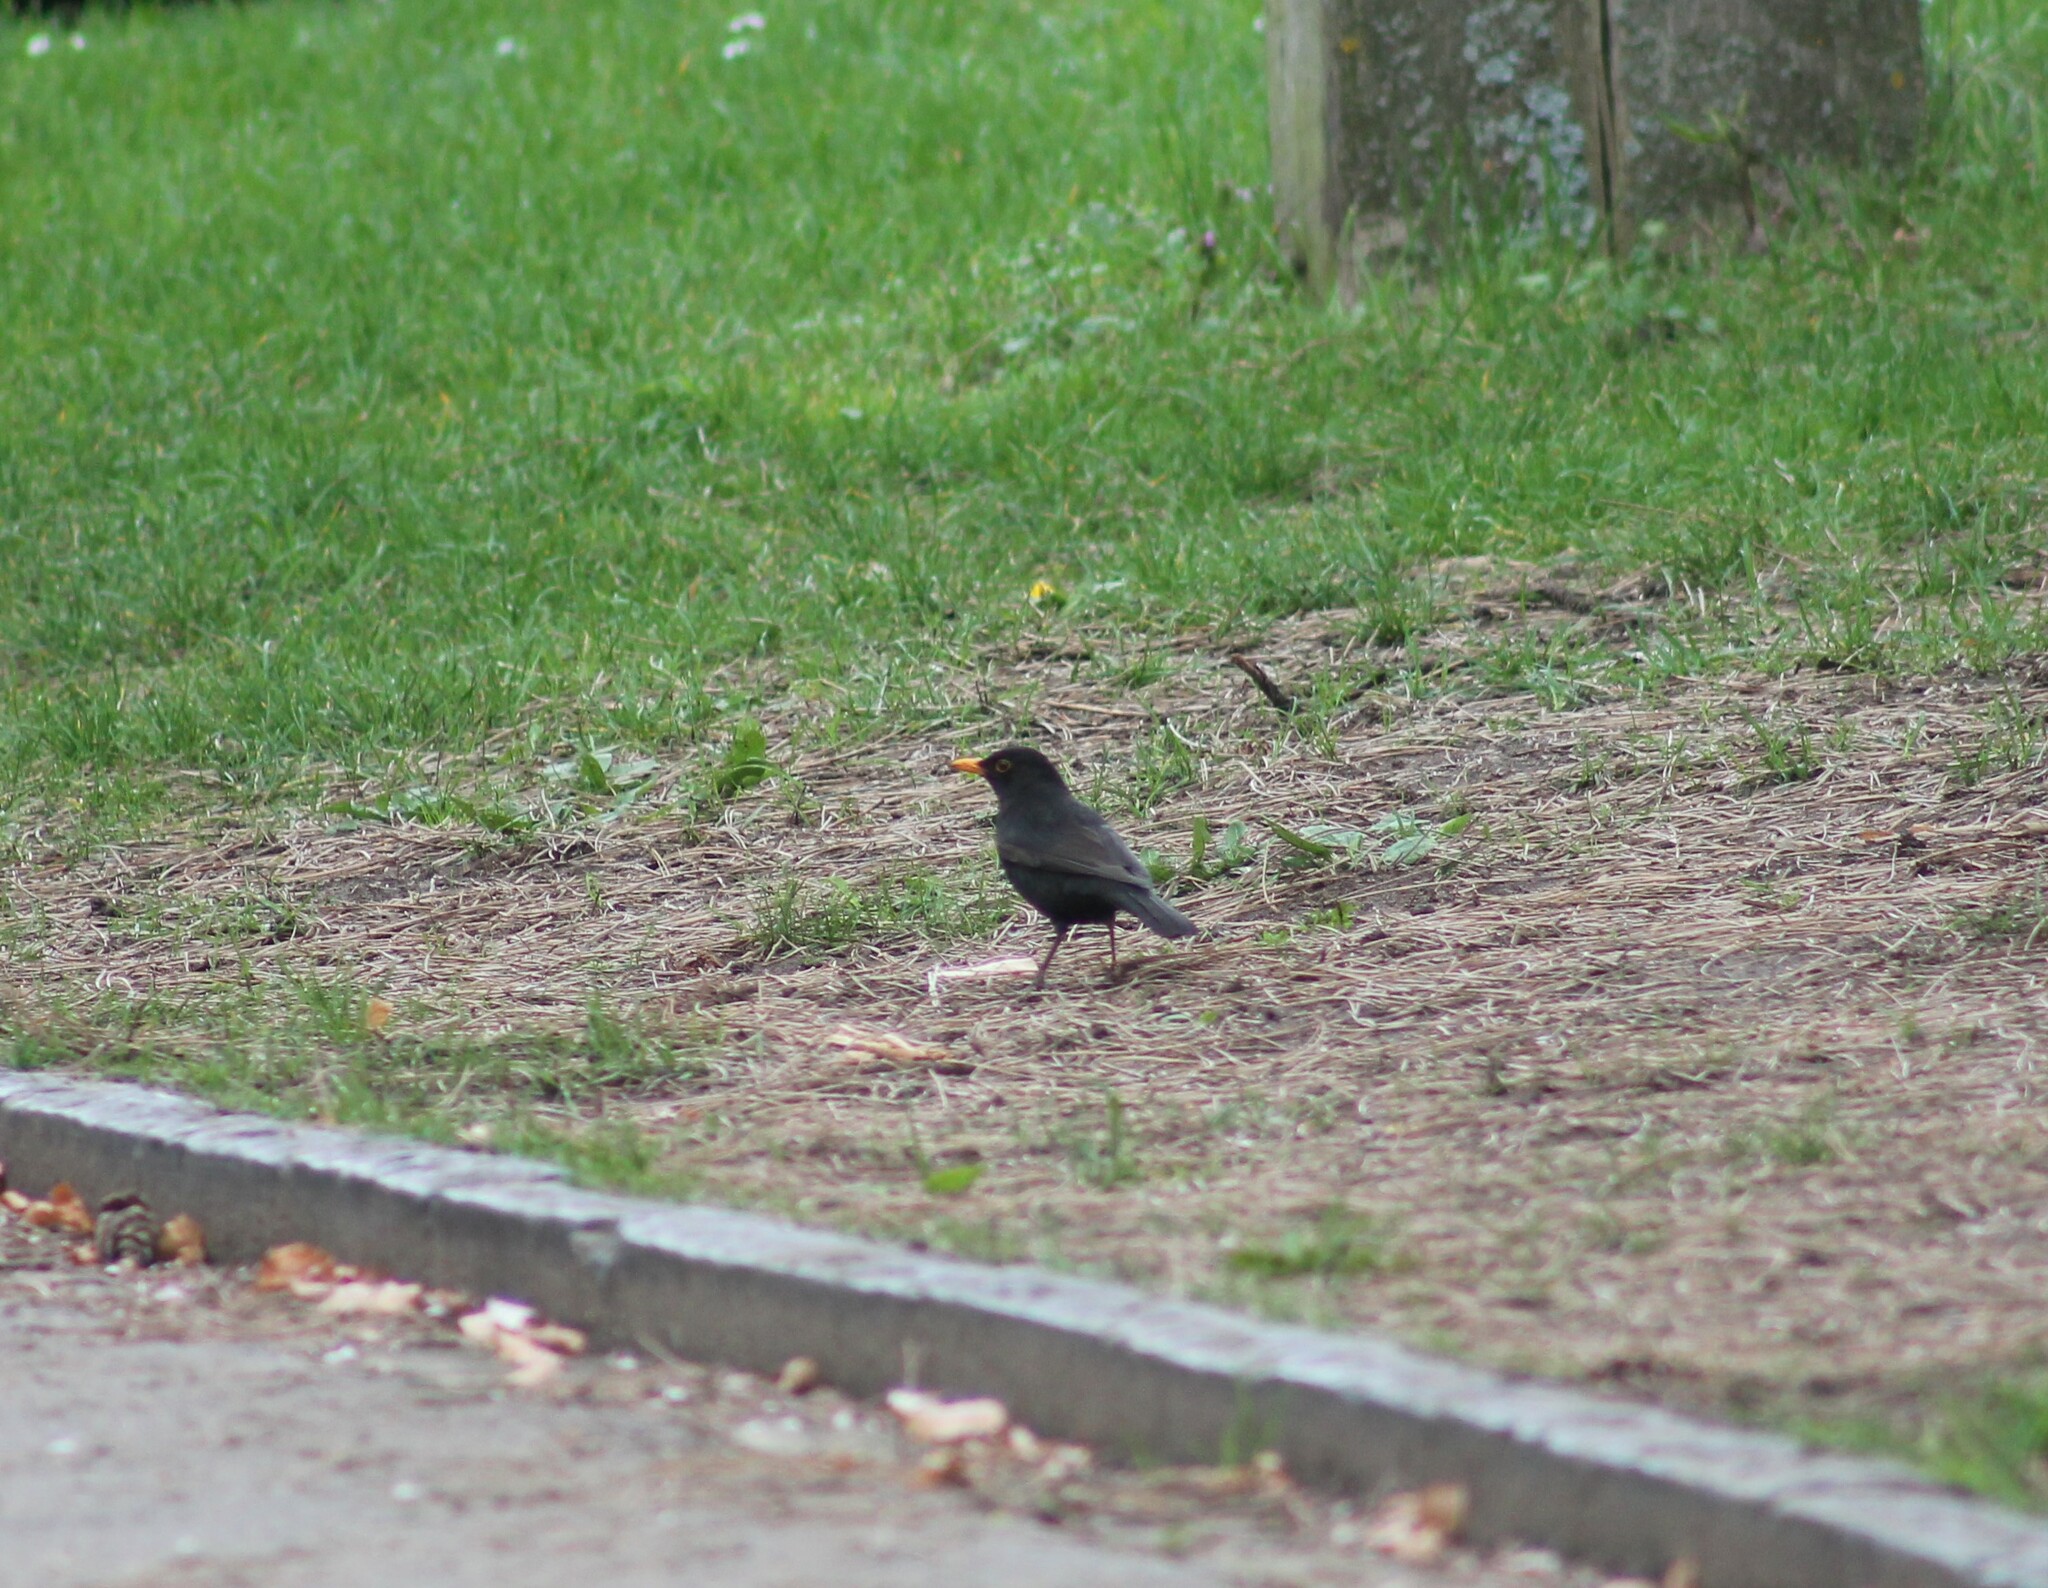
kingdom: Animalia
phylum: Chordata
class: Aves
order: Passeriformes
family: Turdidae
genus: Turdus
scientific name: Turdus merula
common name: Common blackbird
